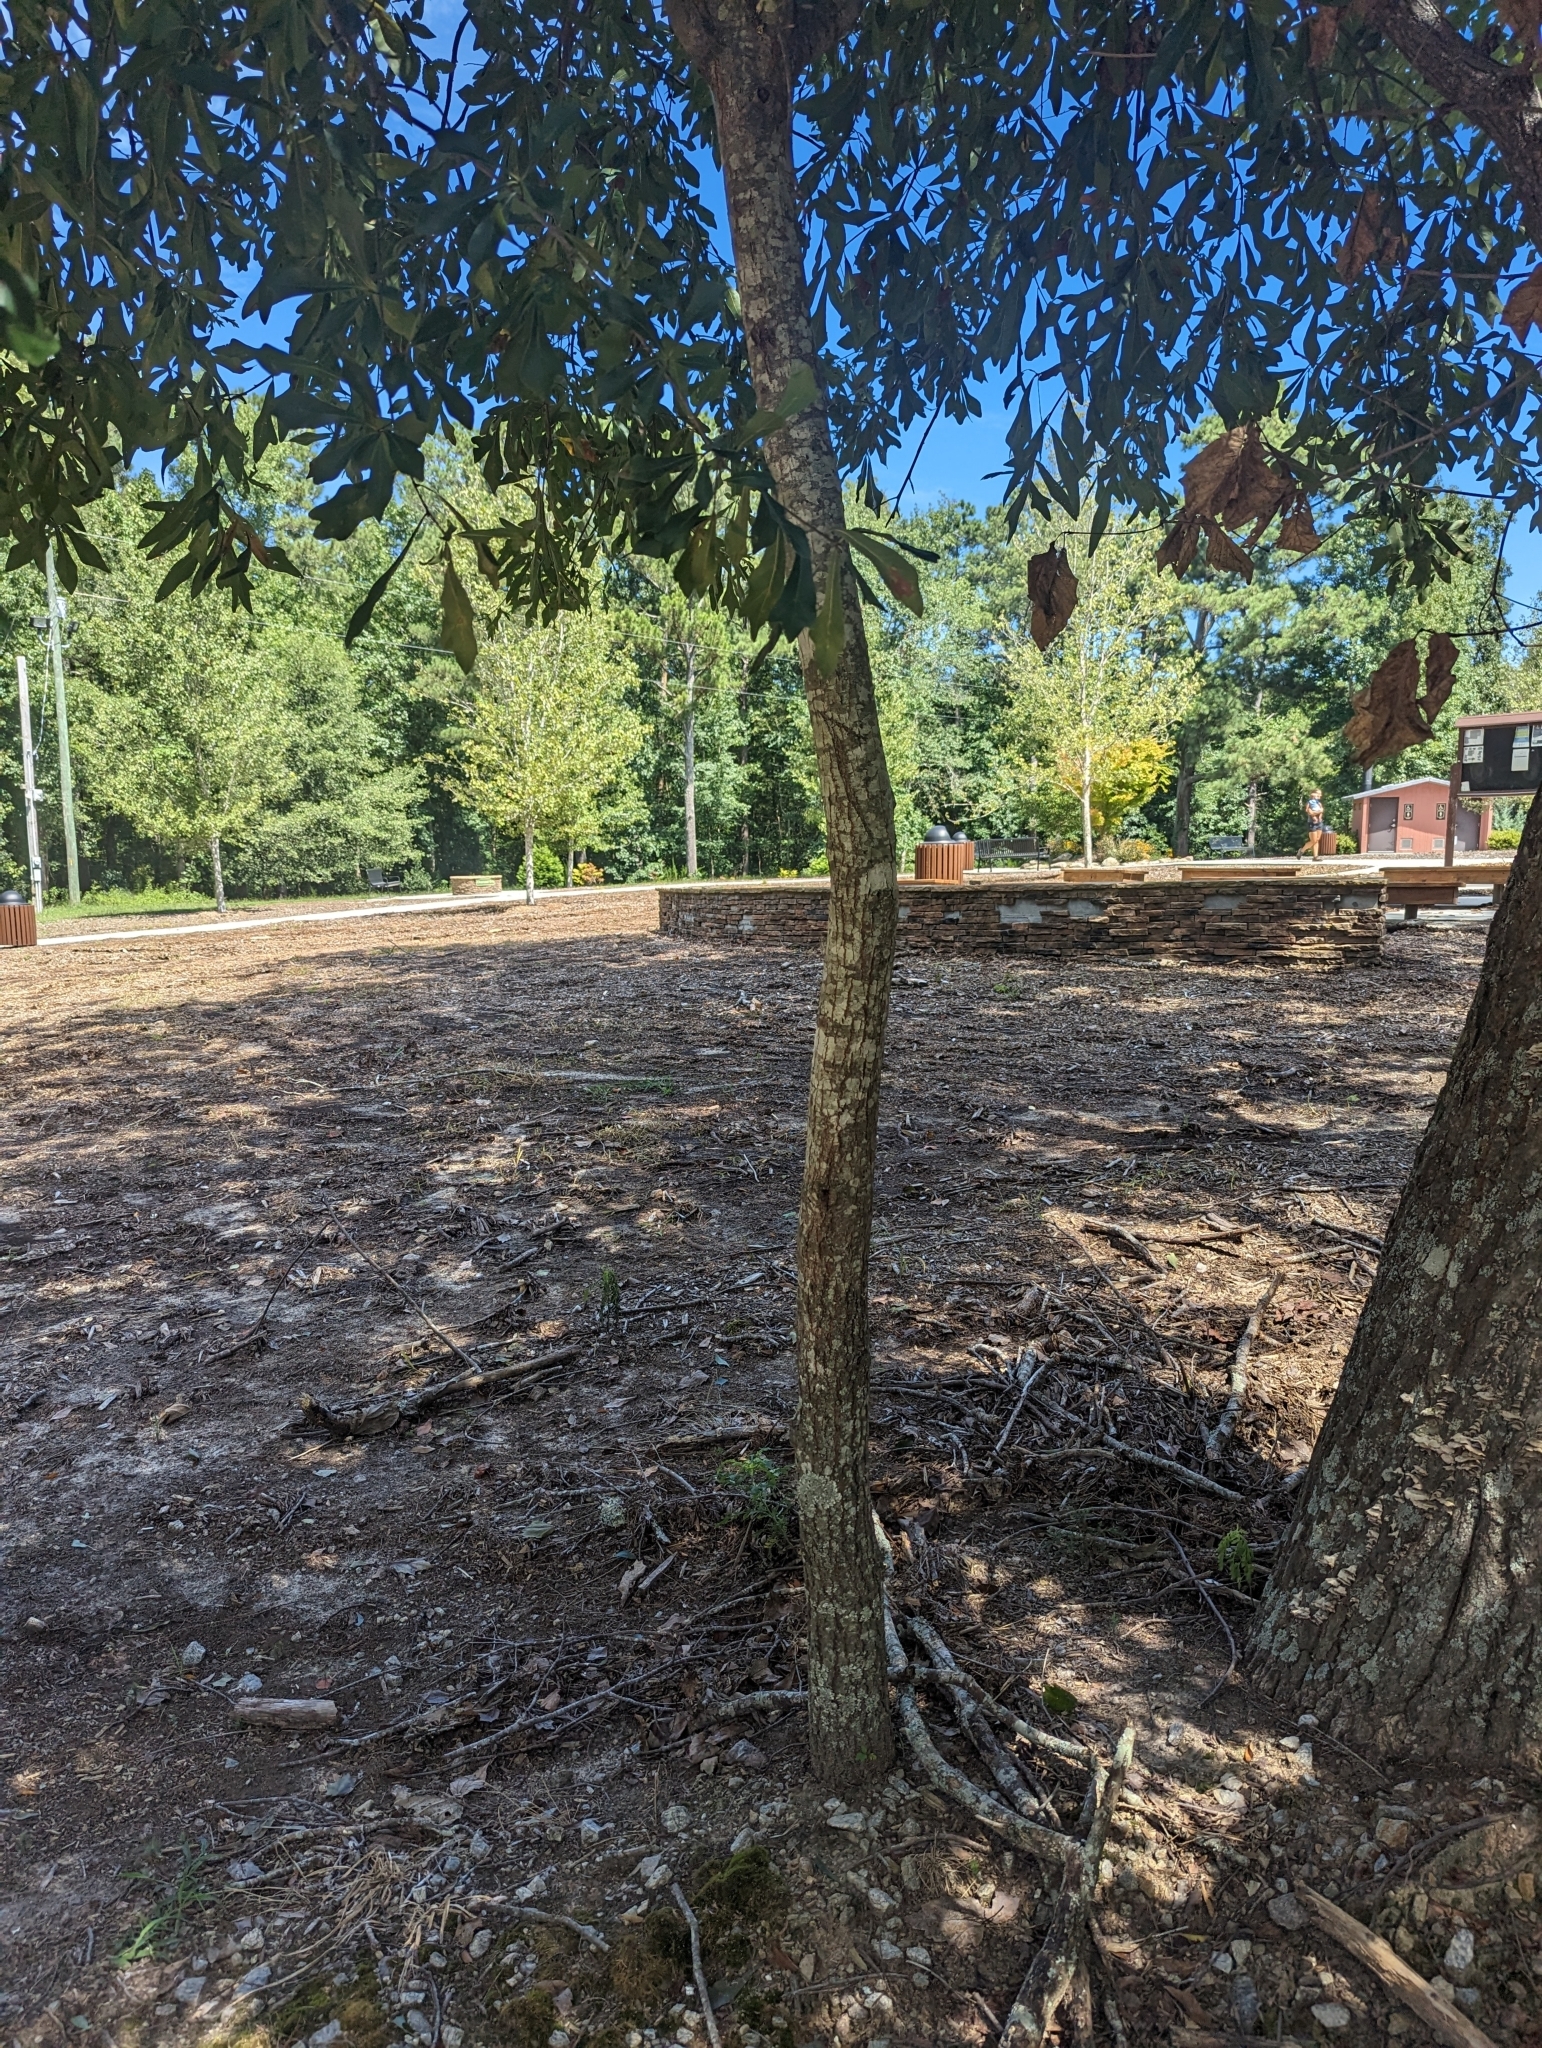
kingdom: Plantae
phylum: Tracheophyta
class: Magnoliopsida
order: Fagales
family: Fagaceae
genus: Quercus
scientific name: Quercus nigra
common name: Water oak
